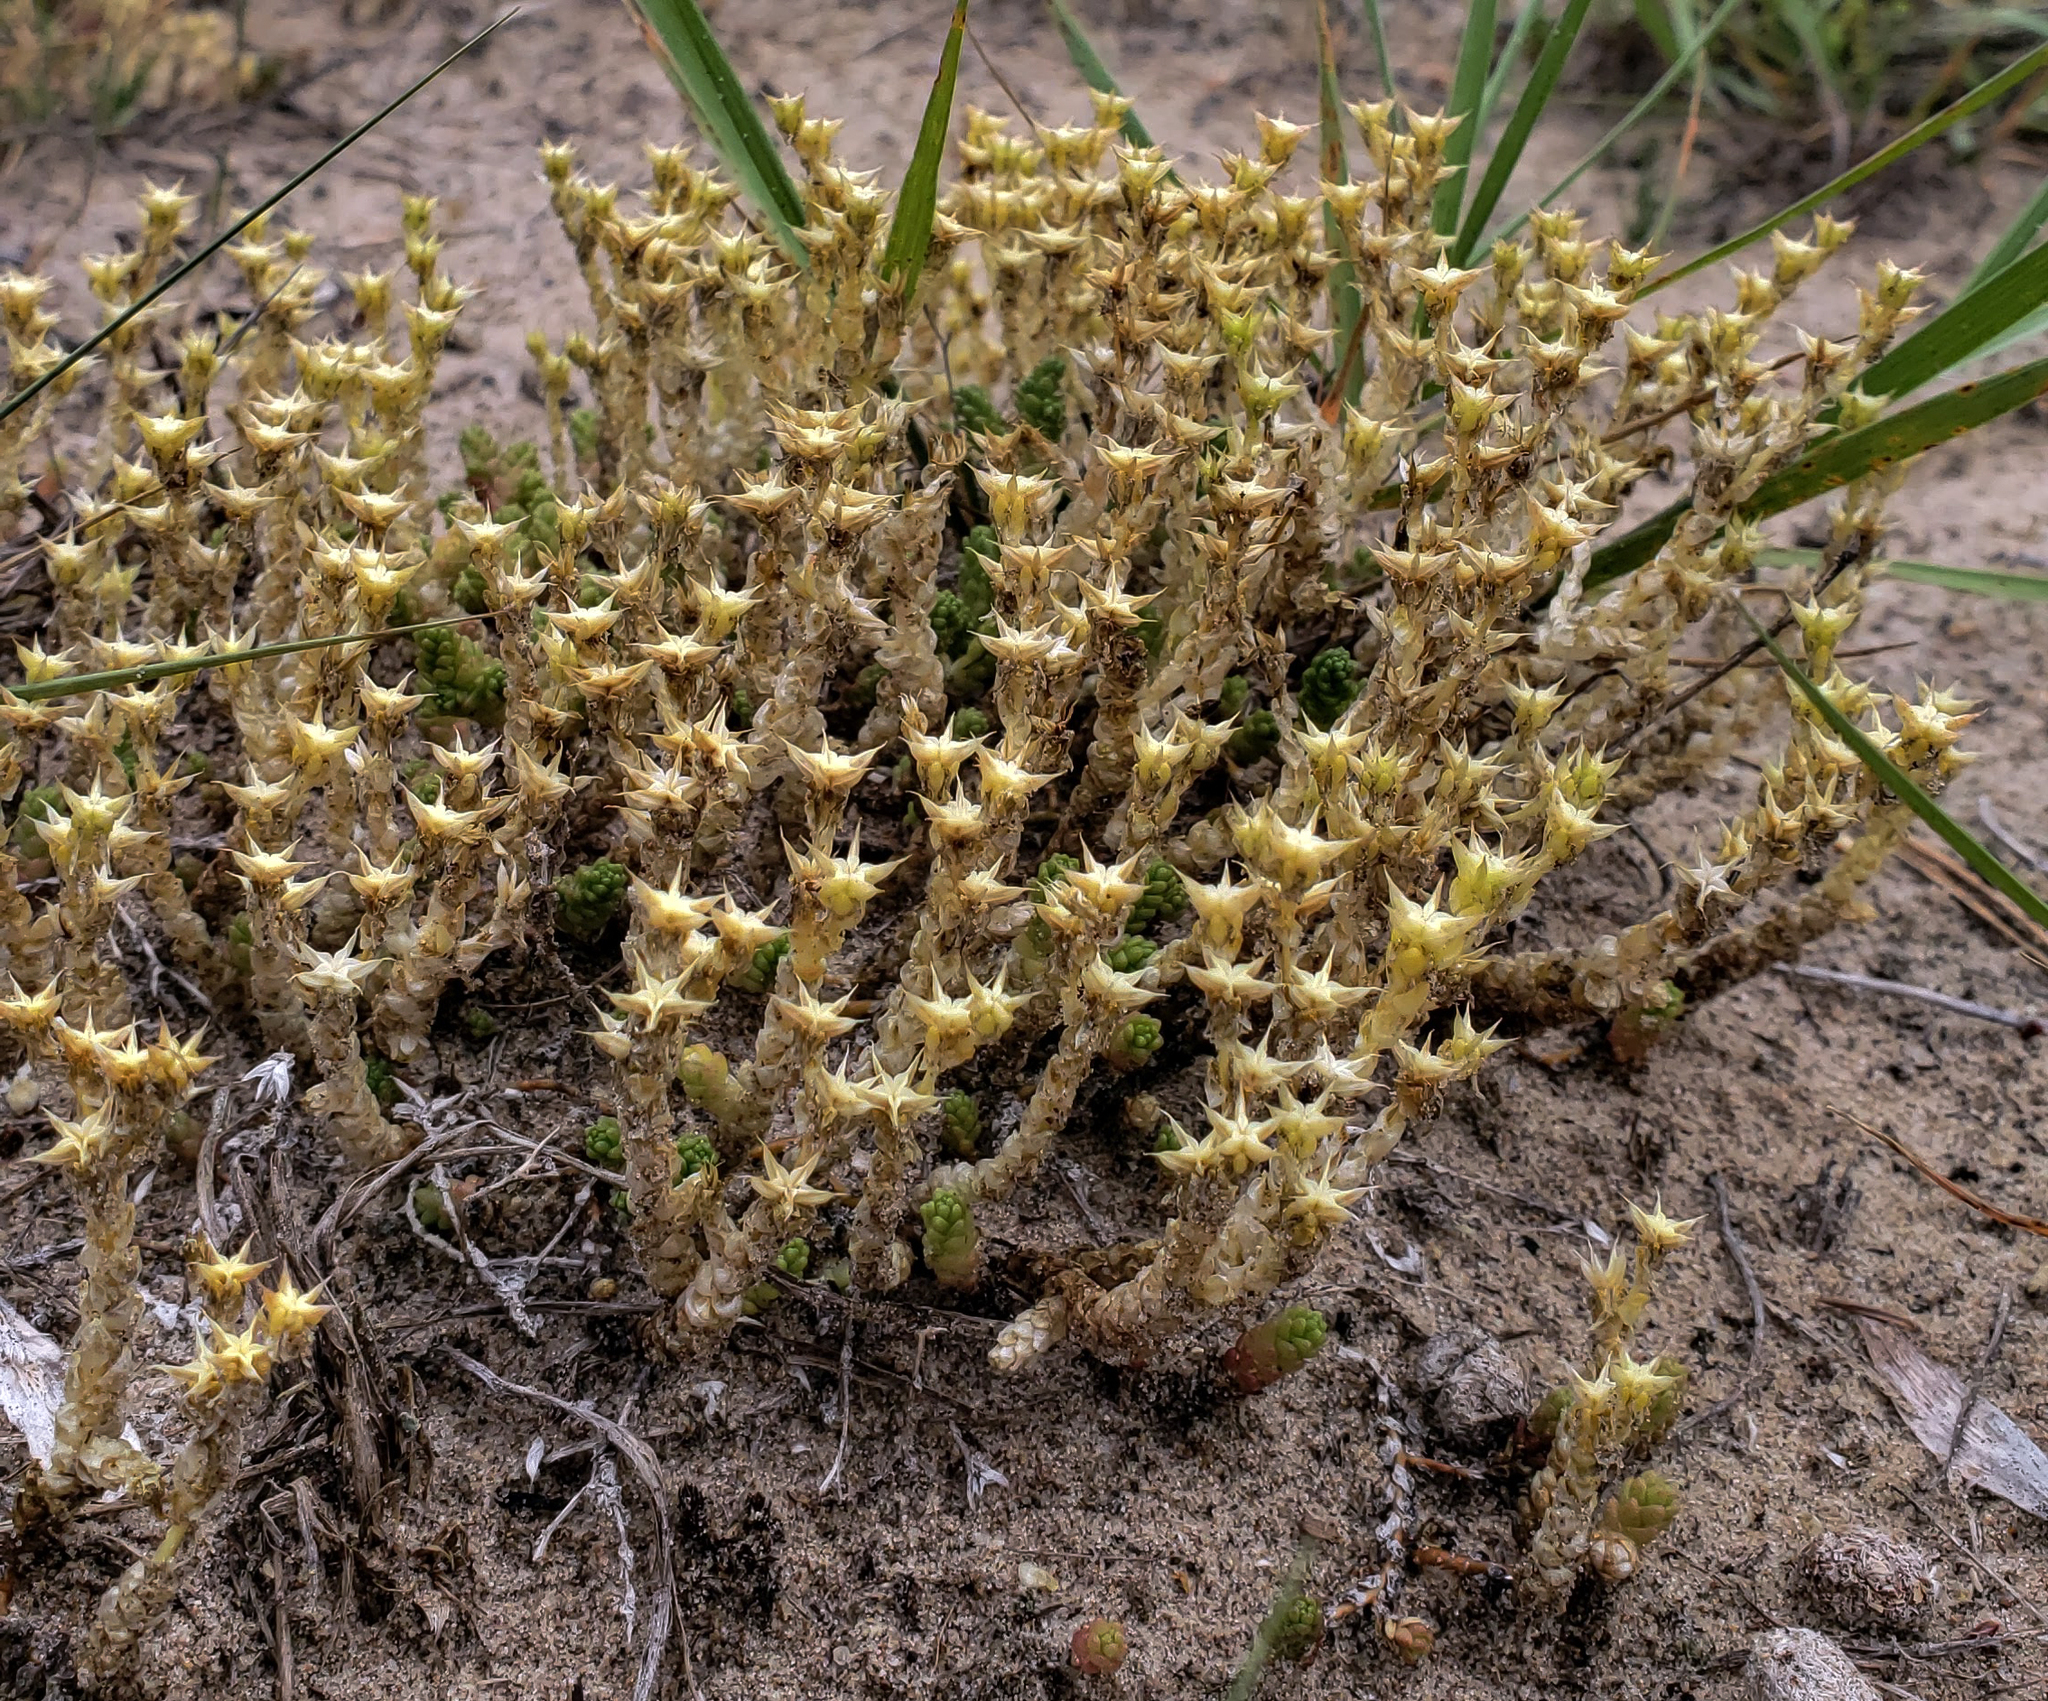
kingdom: Plantae
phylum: Tracheophyta
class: Magnoliopsida
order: Saxifragales
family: Crassulaceae
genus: Sedum
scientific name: Sedum acre
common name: Biting stonecrop
